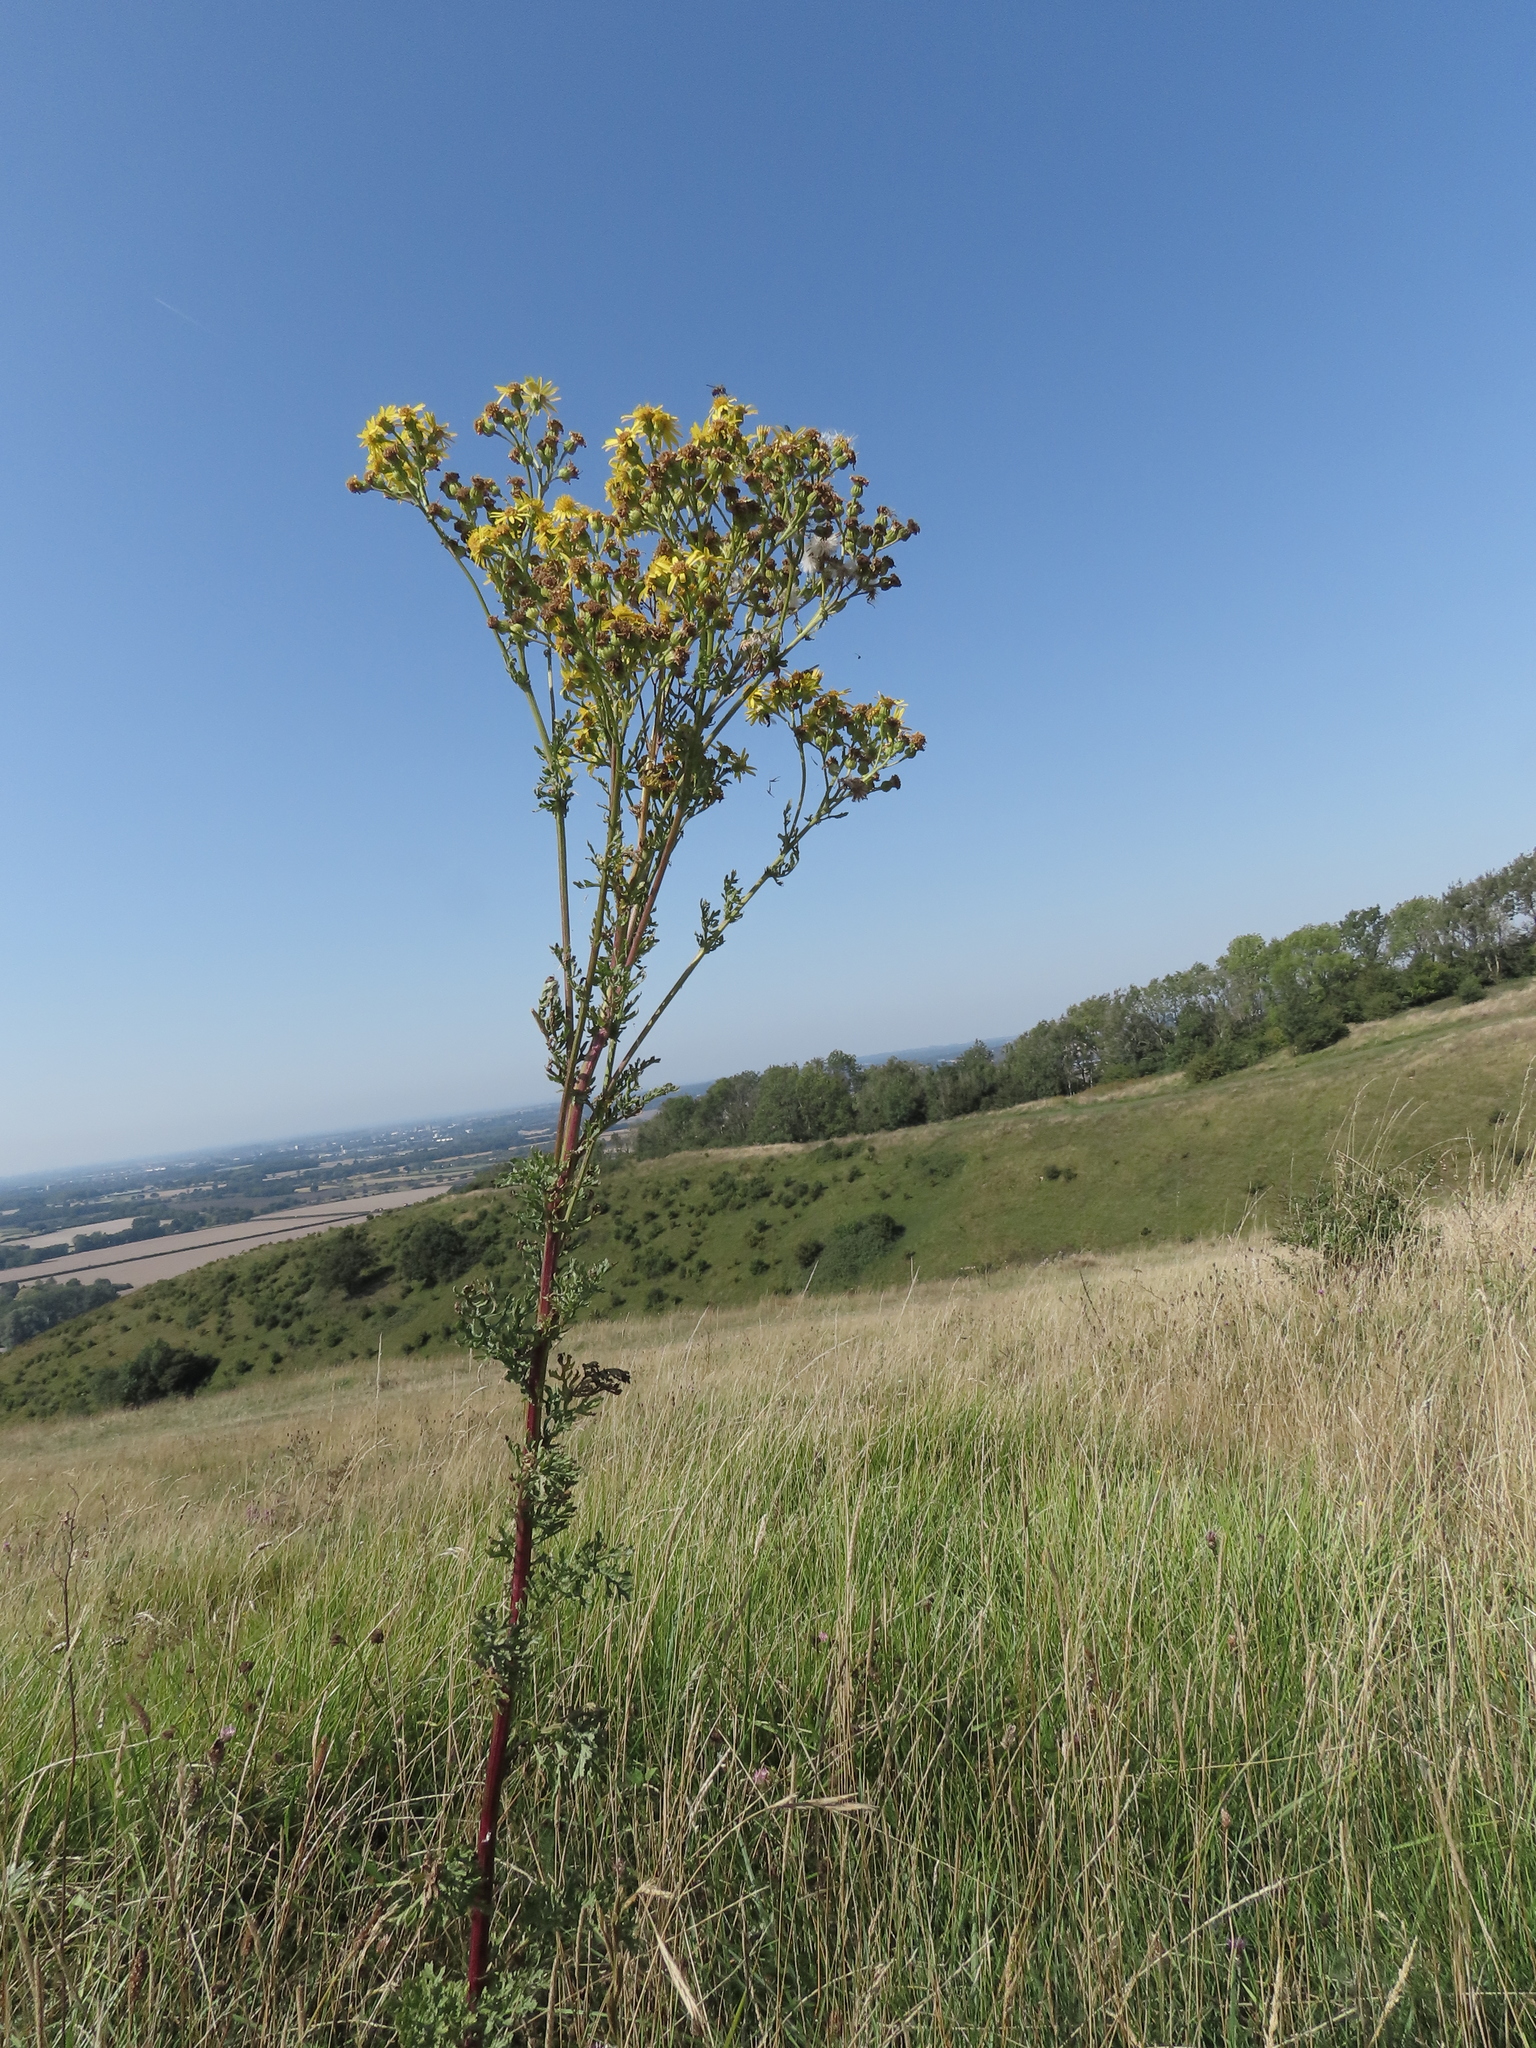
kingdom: Plantae
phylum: Tracheophyta
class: Magnoliopsida
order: Asterales
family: Asteraceae
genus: Jacobaea
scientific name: Jacobaea vulgaris
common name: Stinking willie
